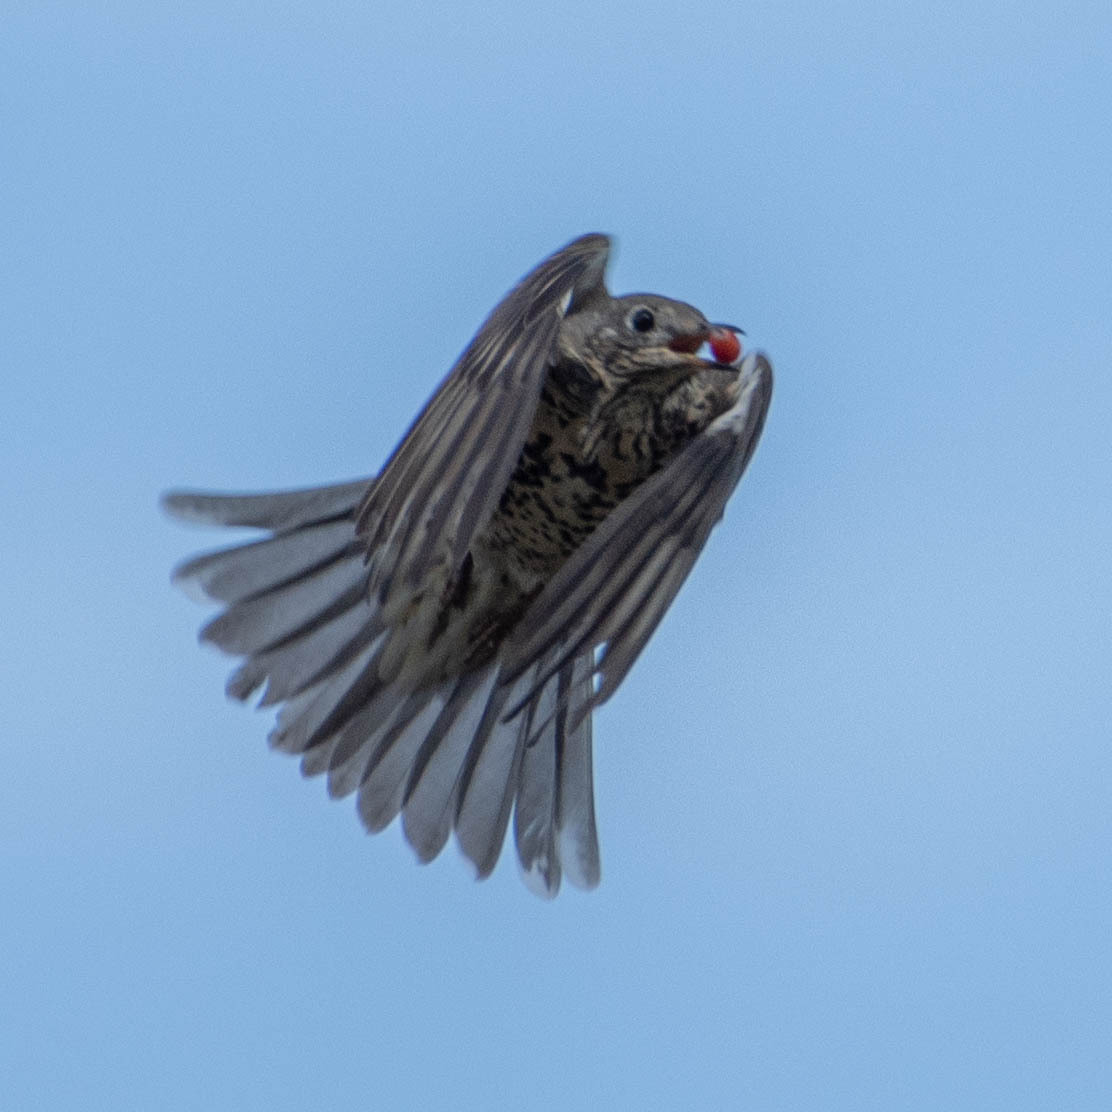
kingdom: Animalia
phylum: Chordata
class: Aves
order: Passeriformes
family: Turdidae
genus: Turdus
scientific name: Turdus viscivorus
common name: Mistle thrush
